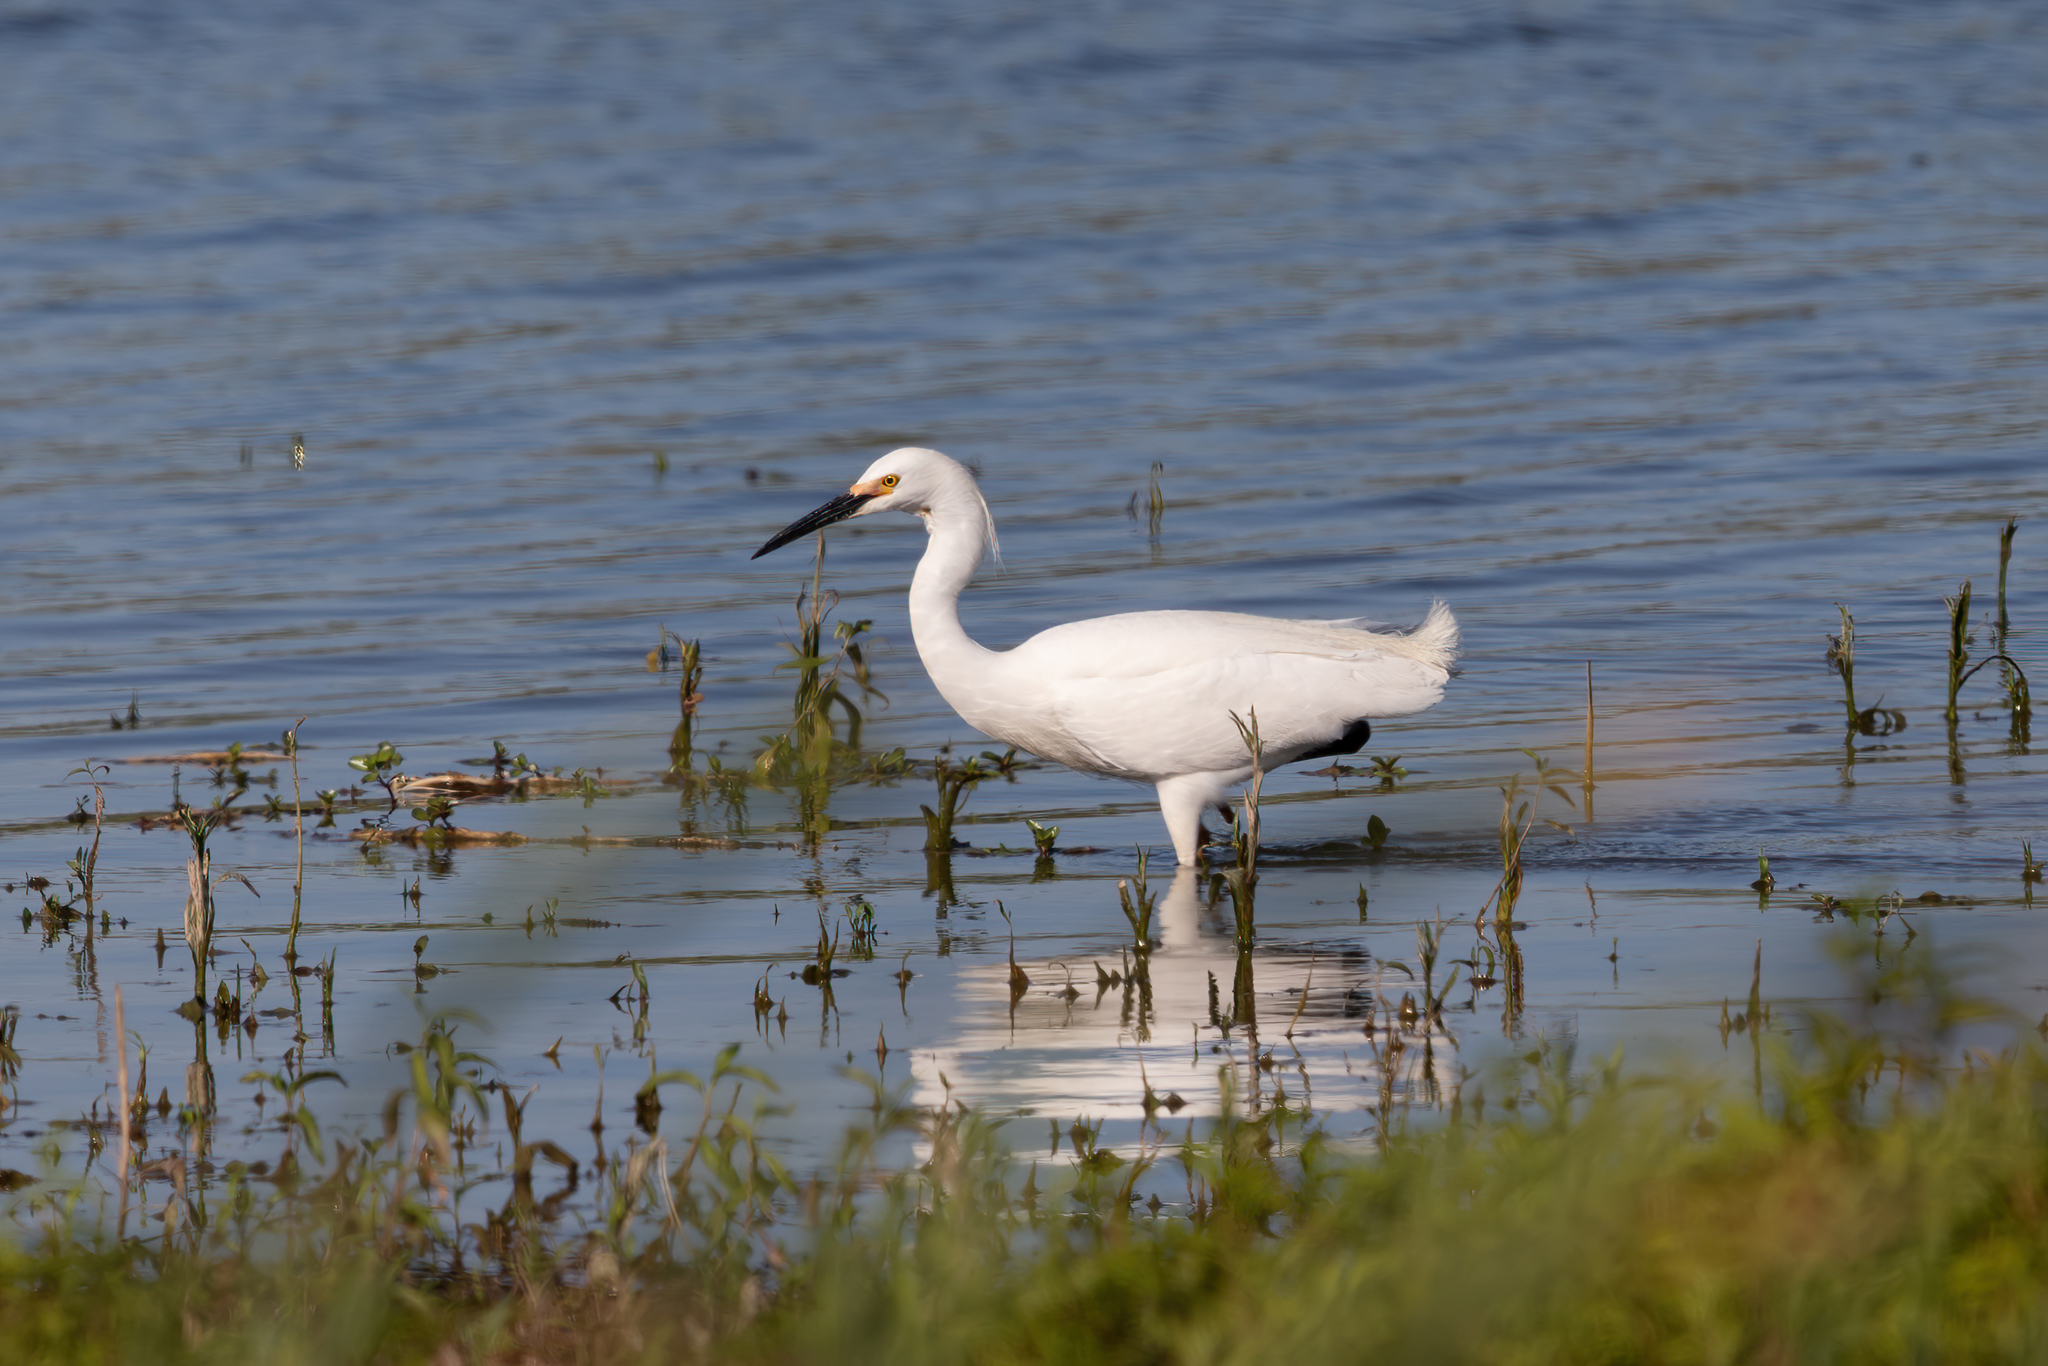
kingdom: Animalia
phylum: Chordata
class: Aves
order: Pelecaniformes
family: Ardeidae
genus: Egretta
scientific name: Egretta thula
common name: Snowy egret
